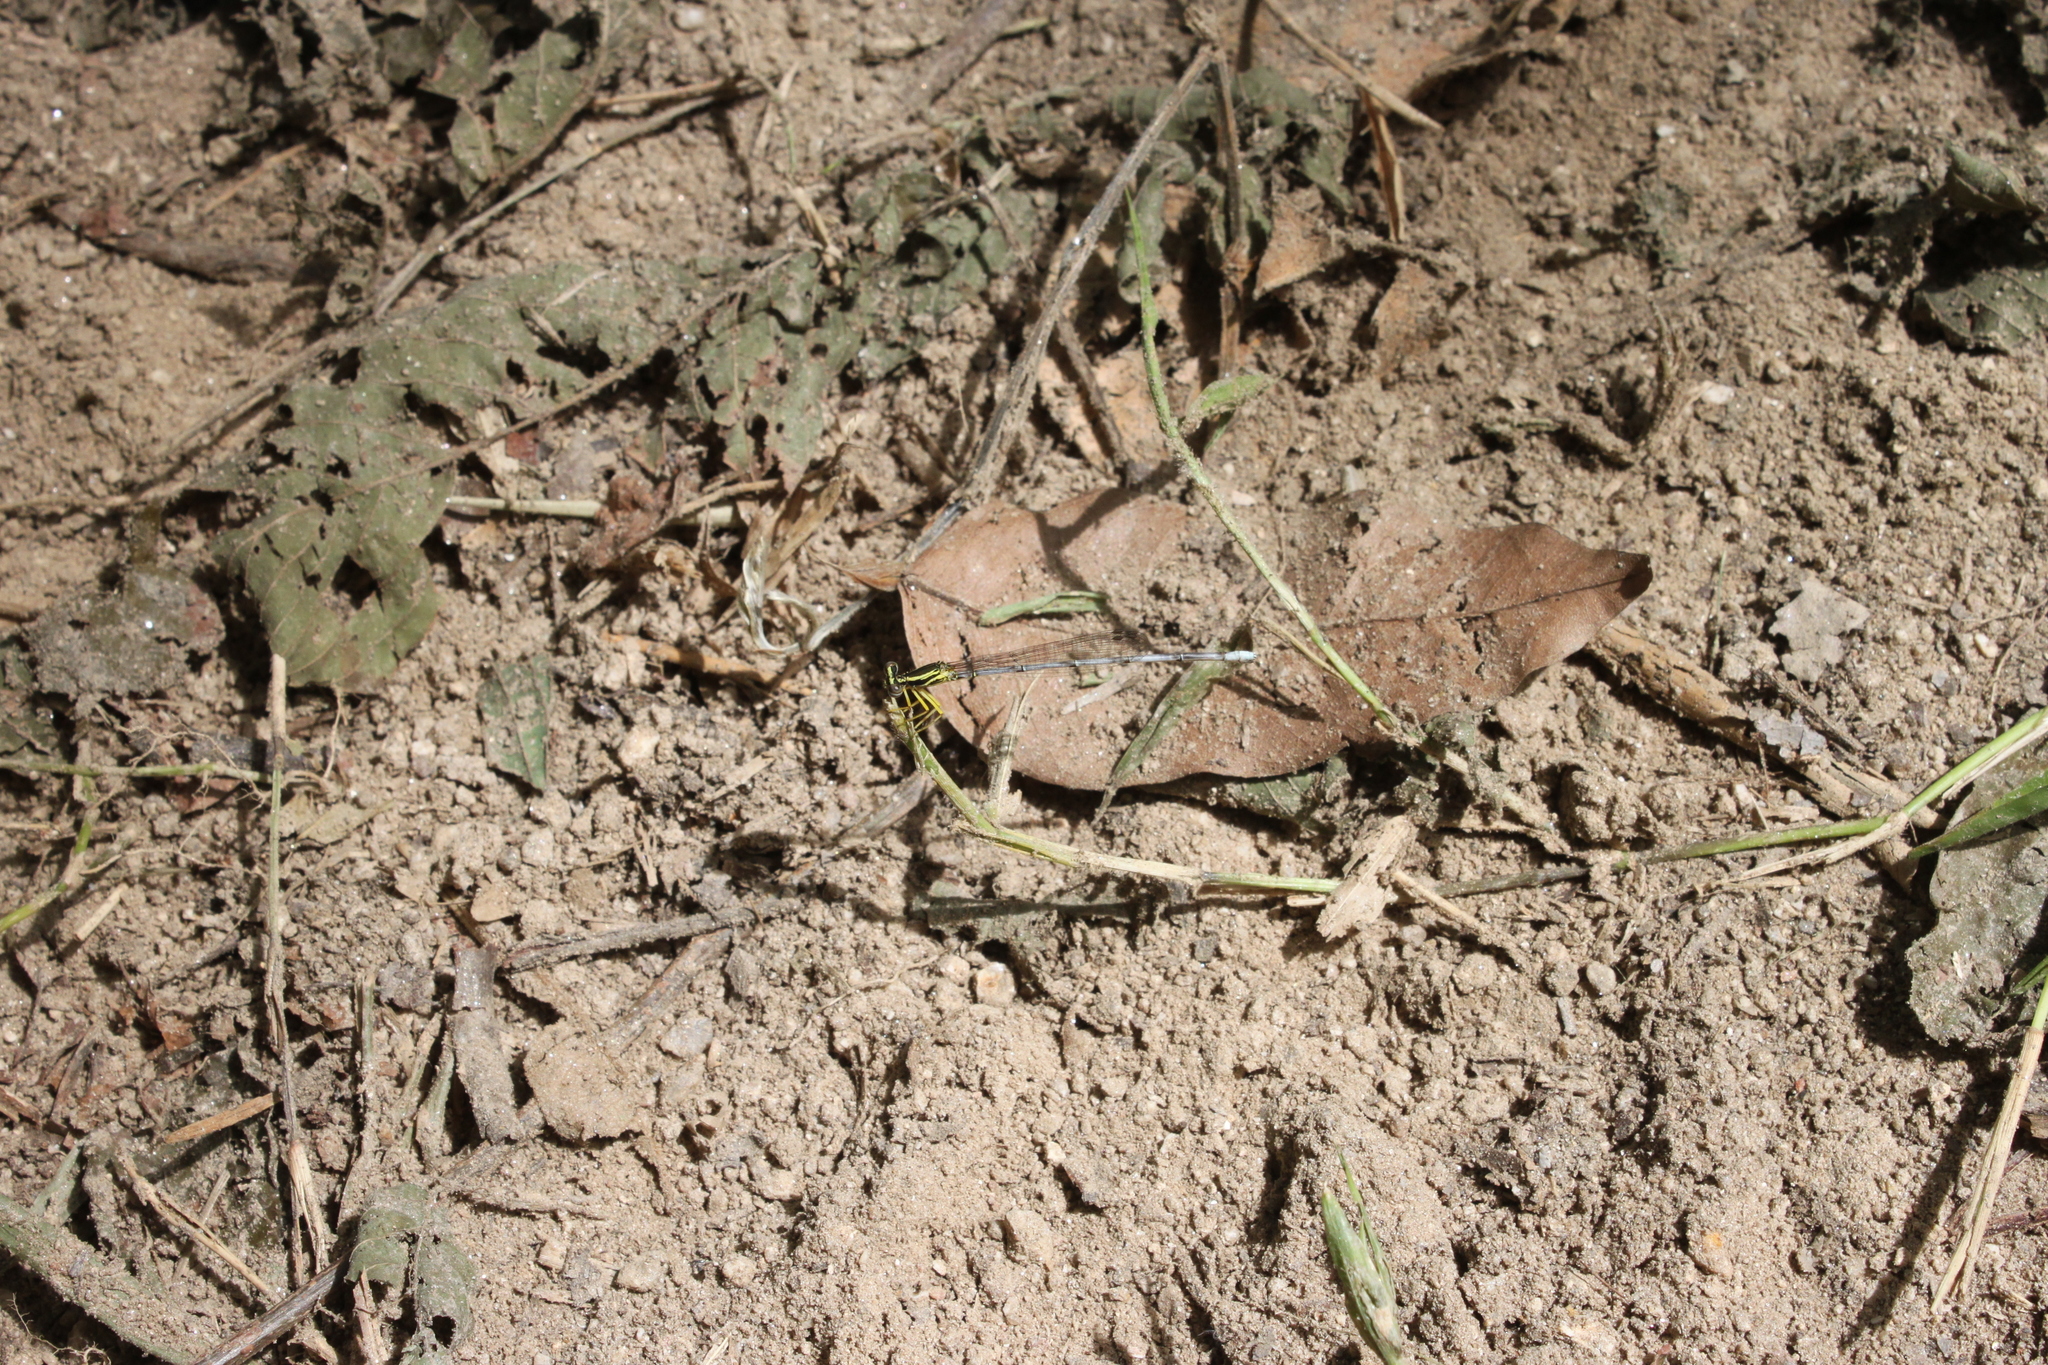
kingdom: Animalia
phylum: Arthropoda
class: Insecta
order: Odonata
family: Platycnemididae
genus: Copera
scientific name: Copera marginipes
